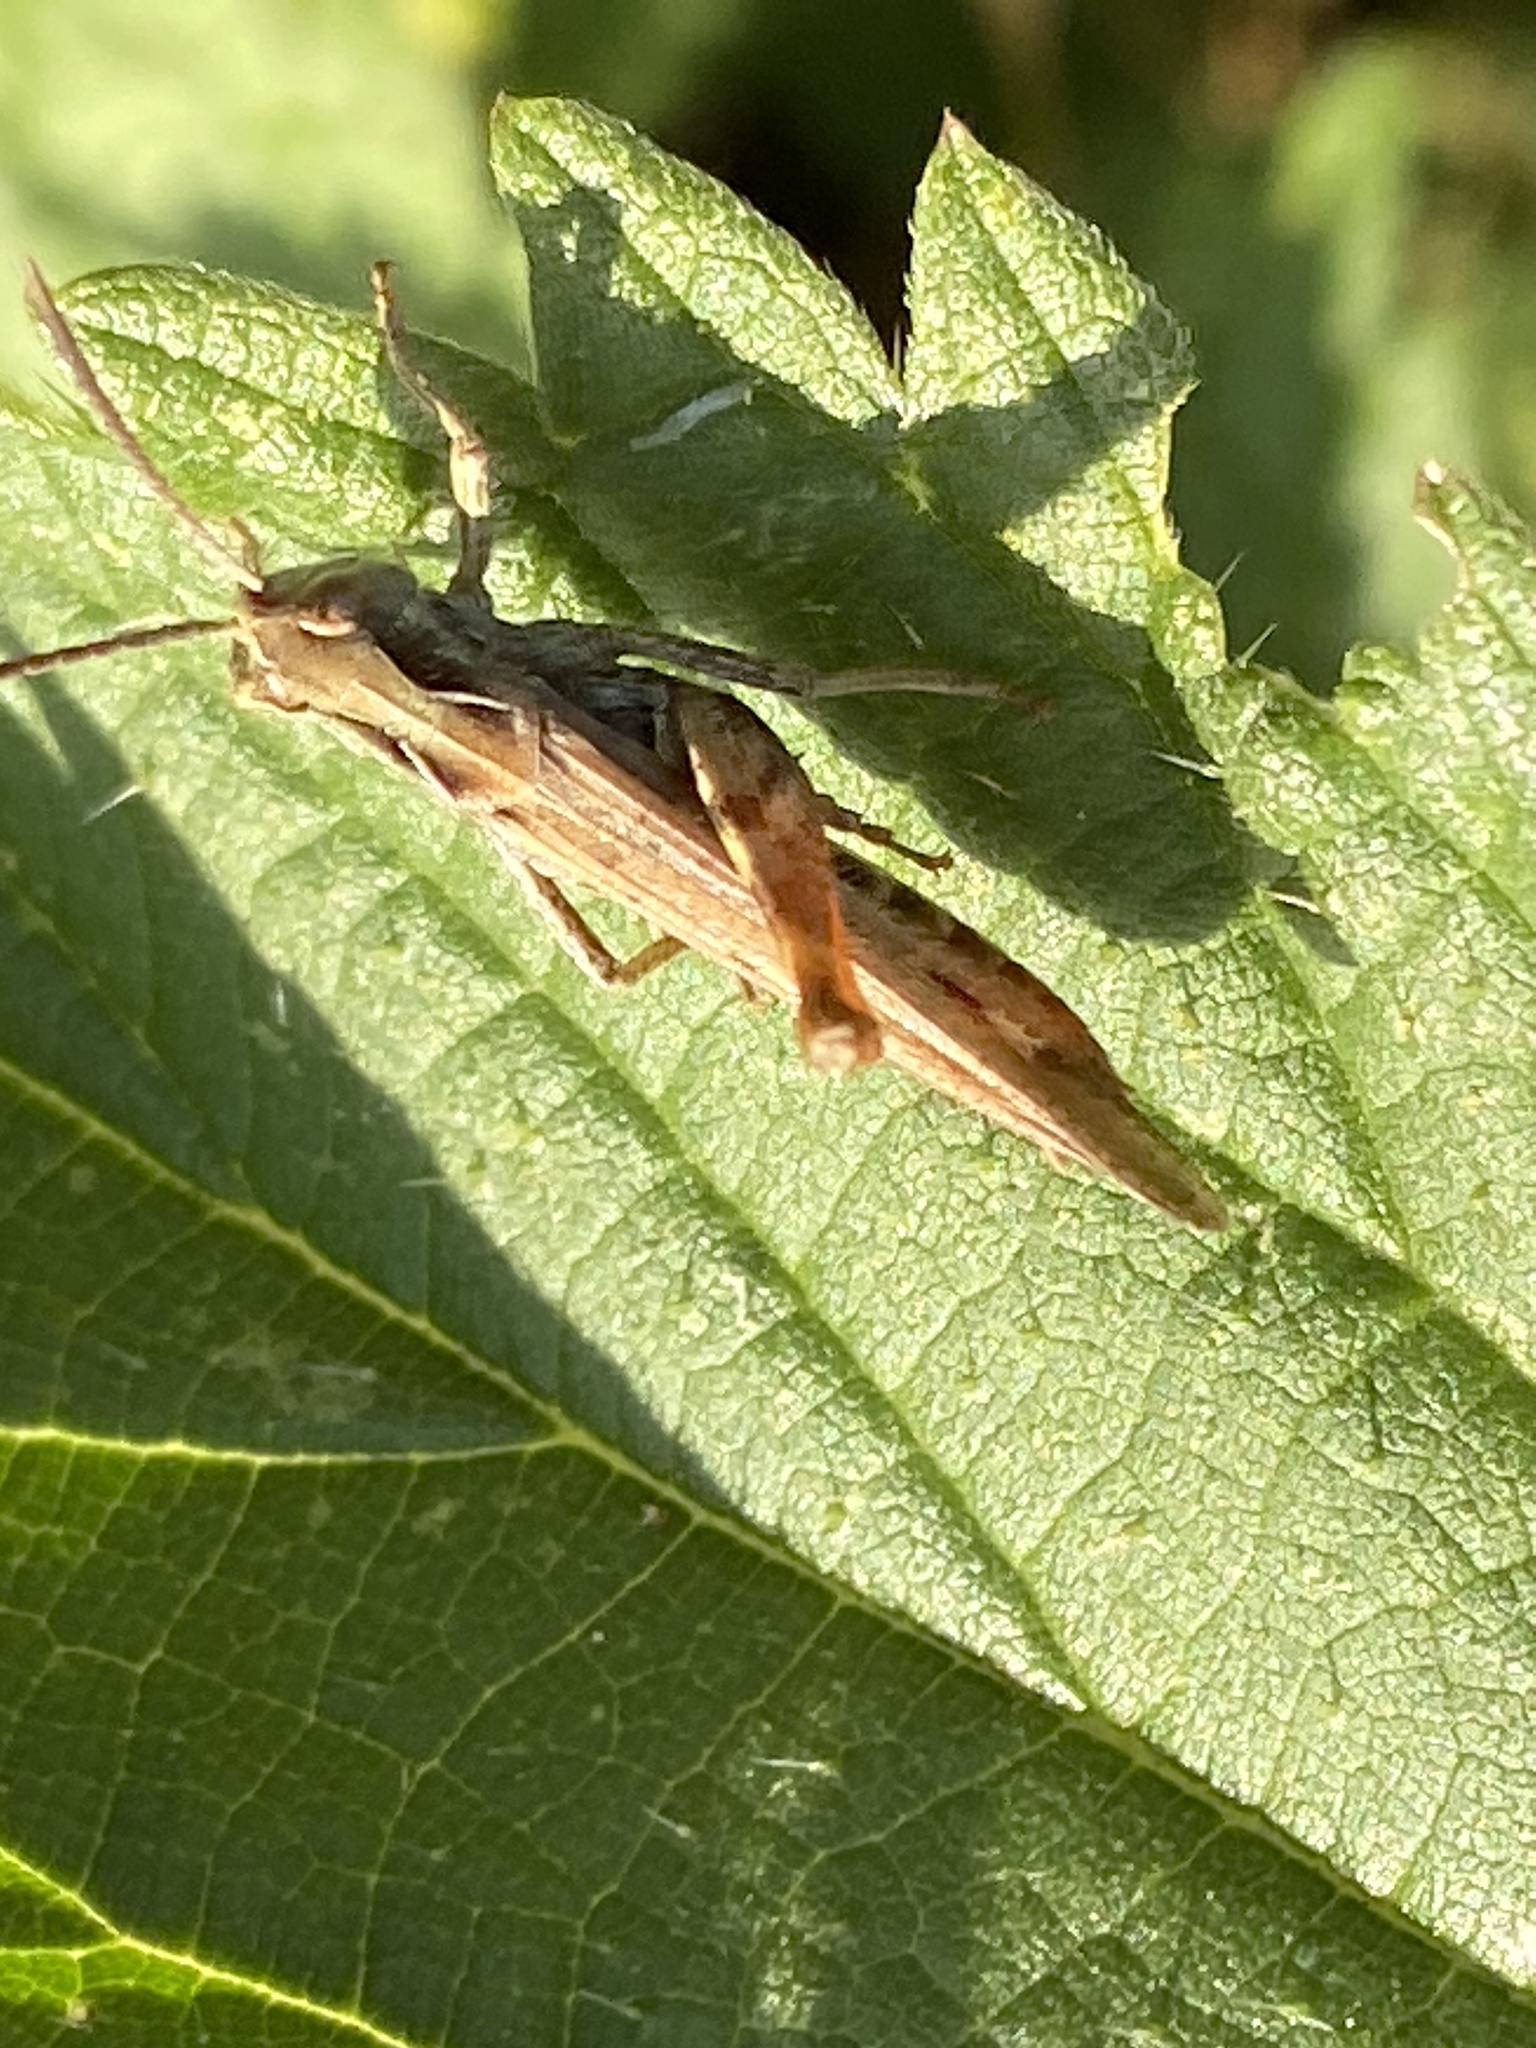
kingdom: Animalia
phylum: Arthropoda
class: Insecta
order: Orthoptera
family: Acrididae
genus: Chorthippus
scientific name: Chorthippus brunneus
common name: Field grasshopper
